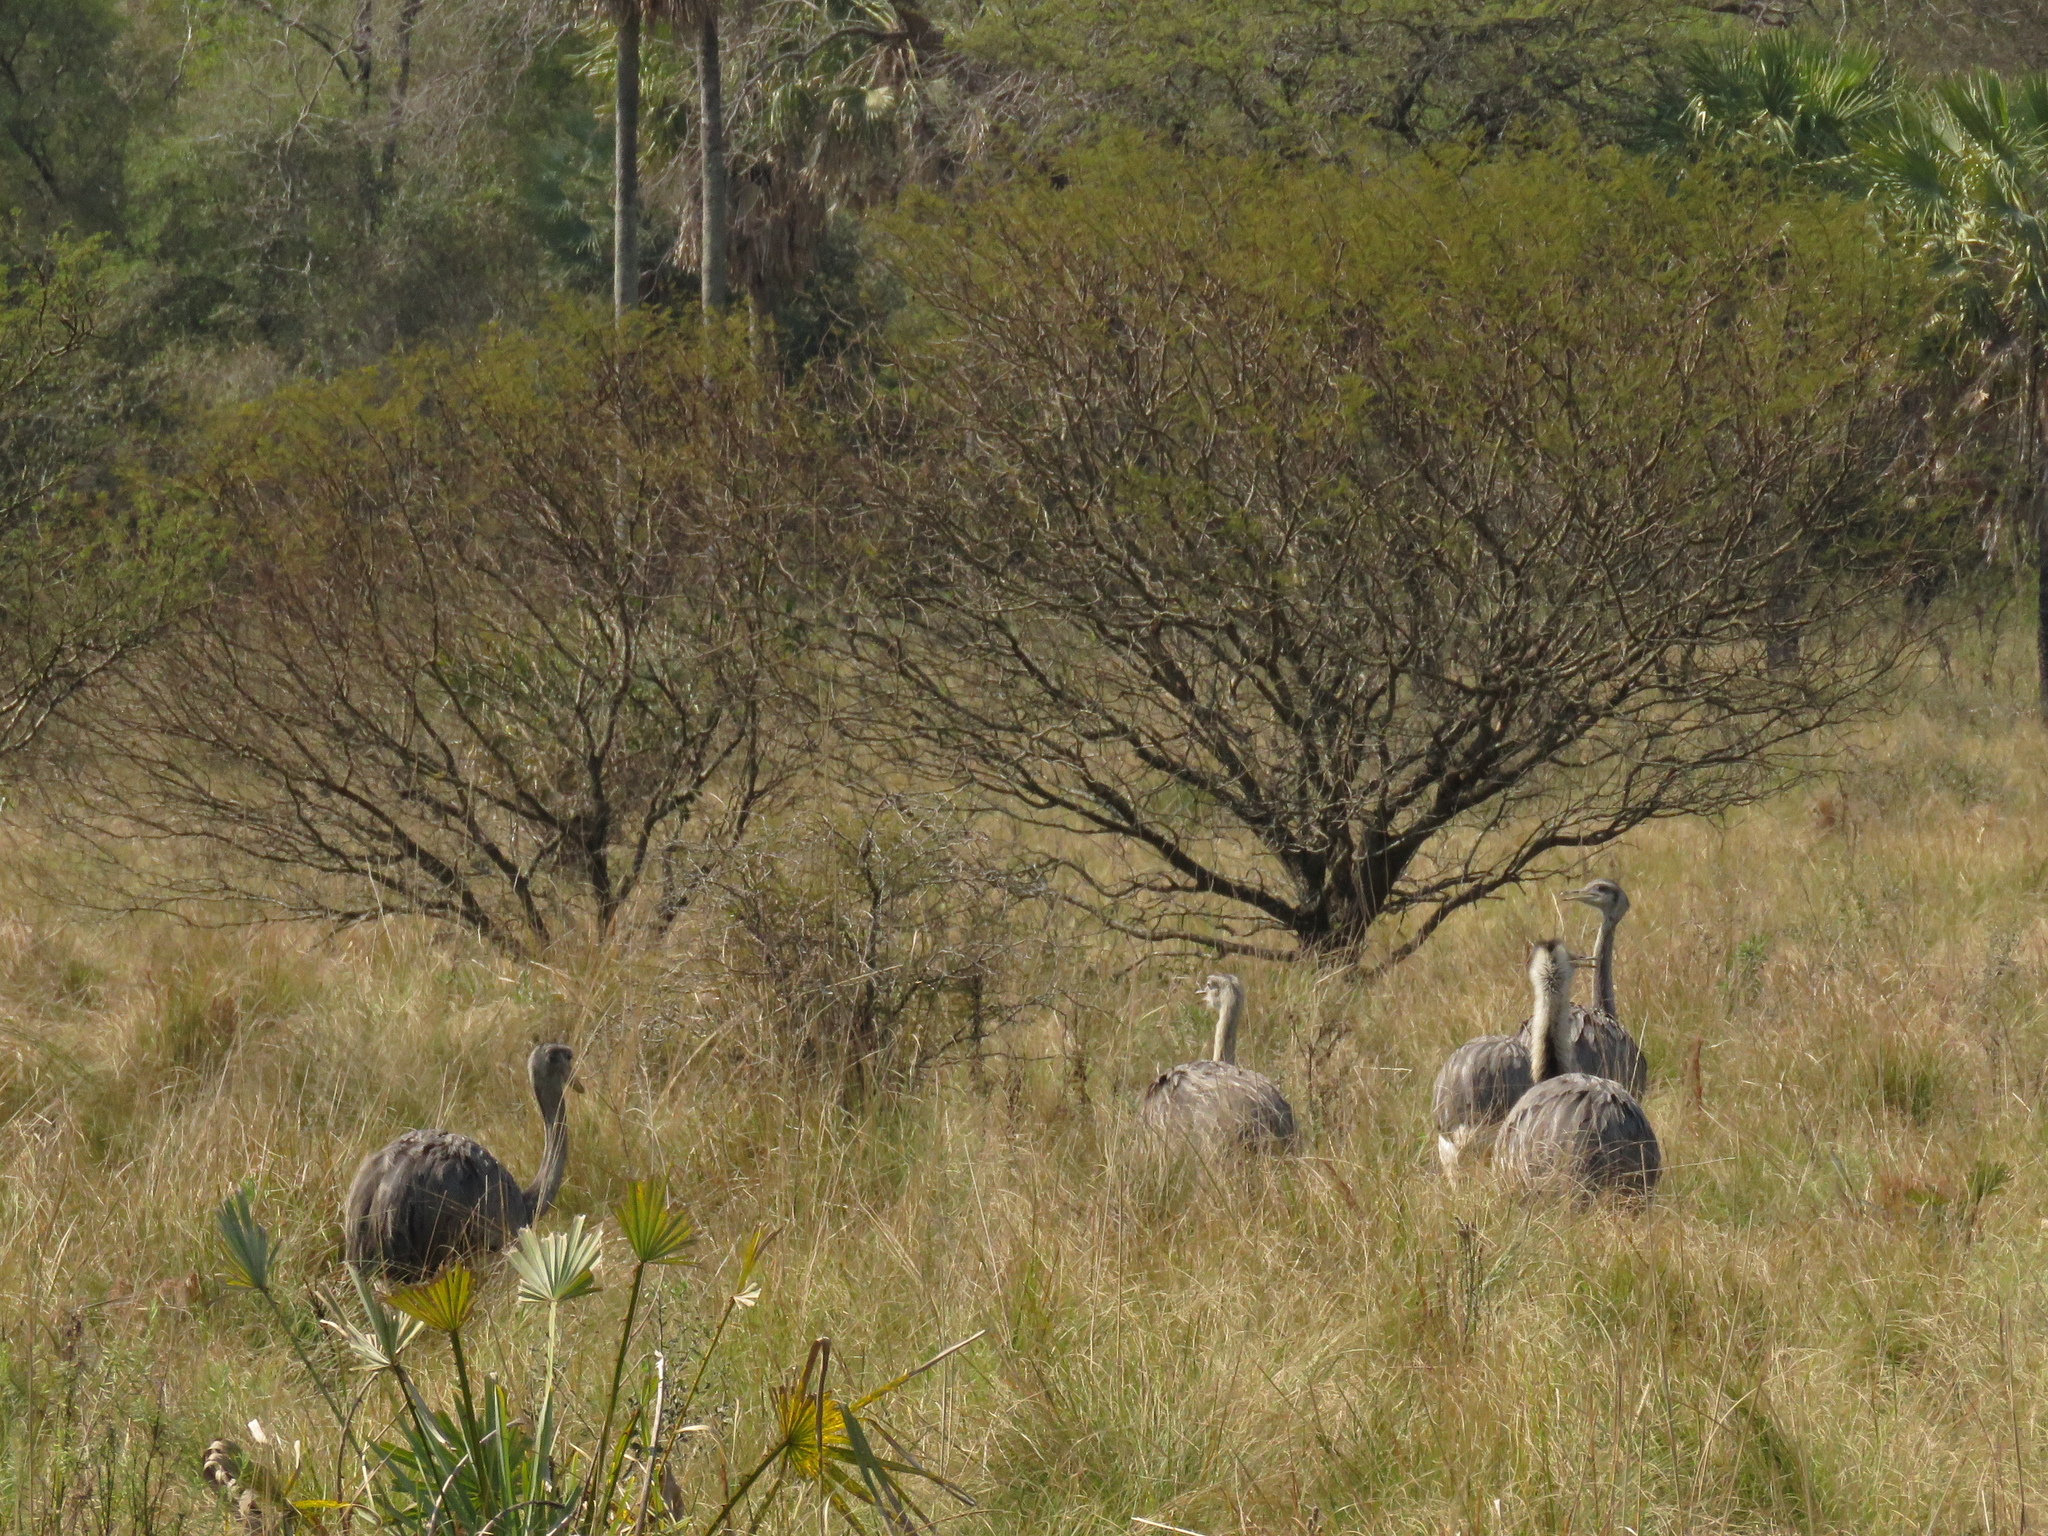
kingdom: Animalia
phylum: Chordata
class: Aves
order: Rheiformes
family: Rheidae
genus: Rhea
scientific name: Rhea americana
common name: Greater rhea
